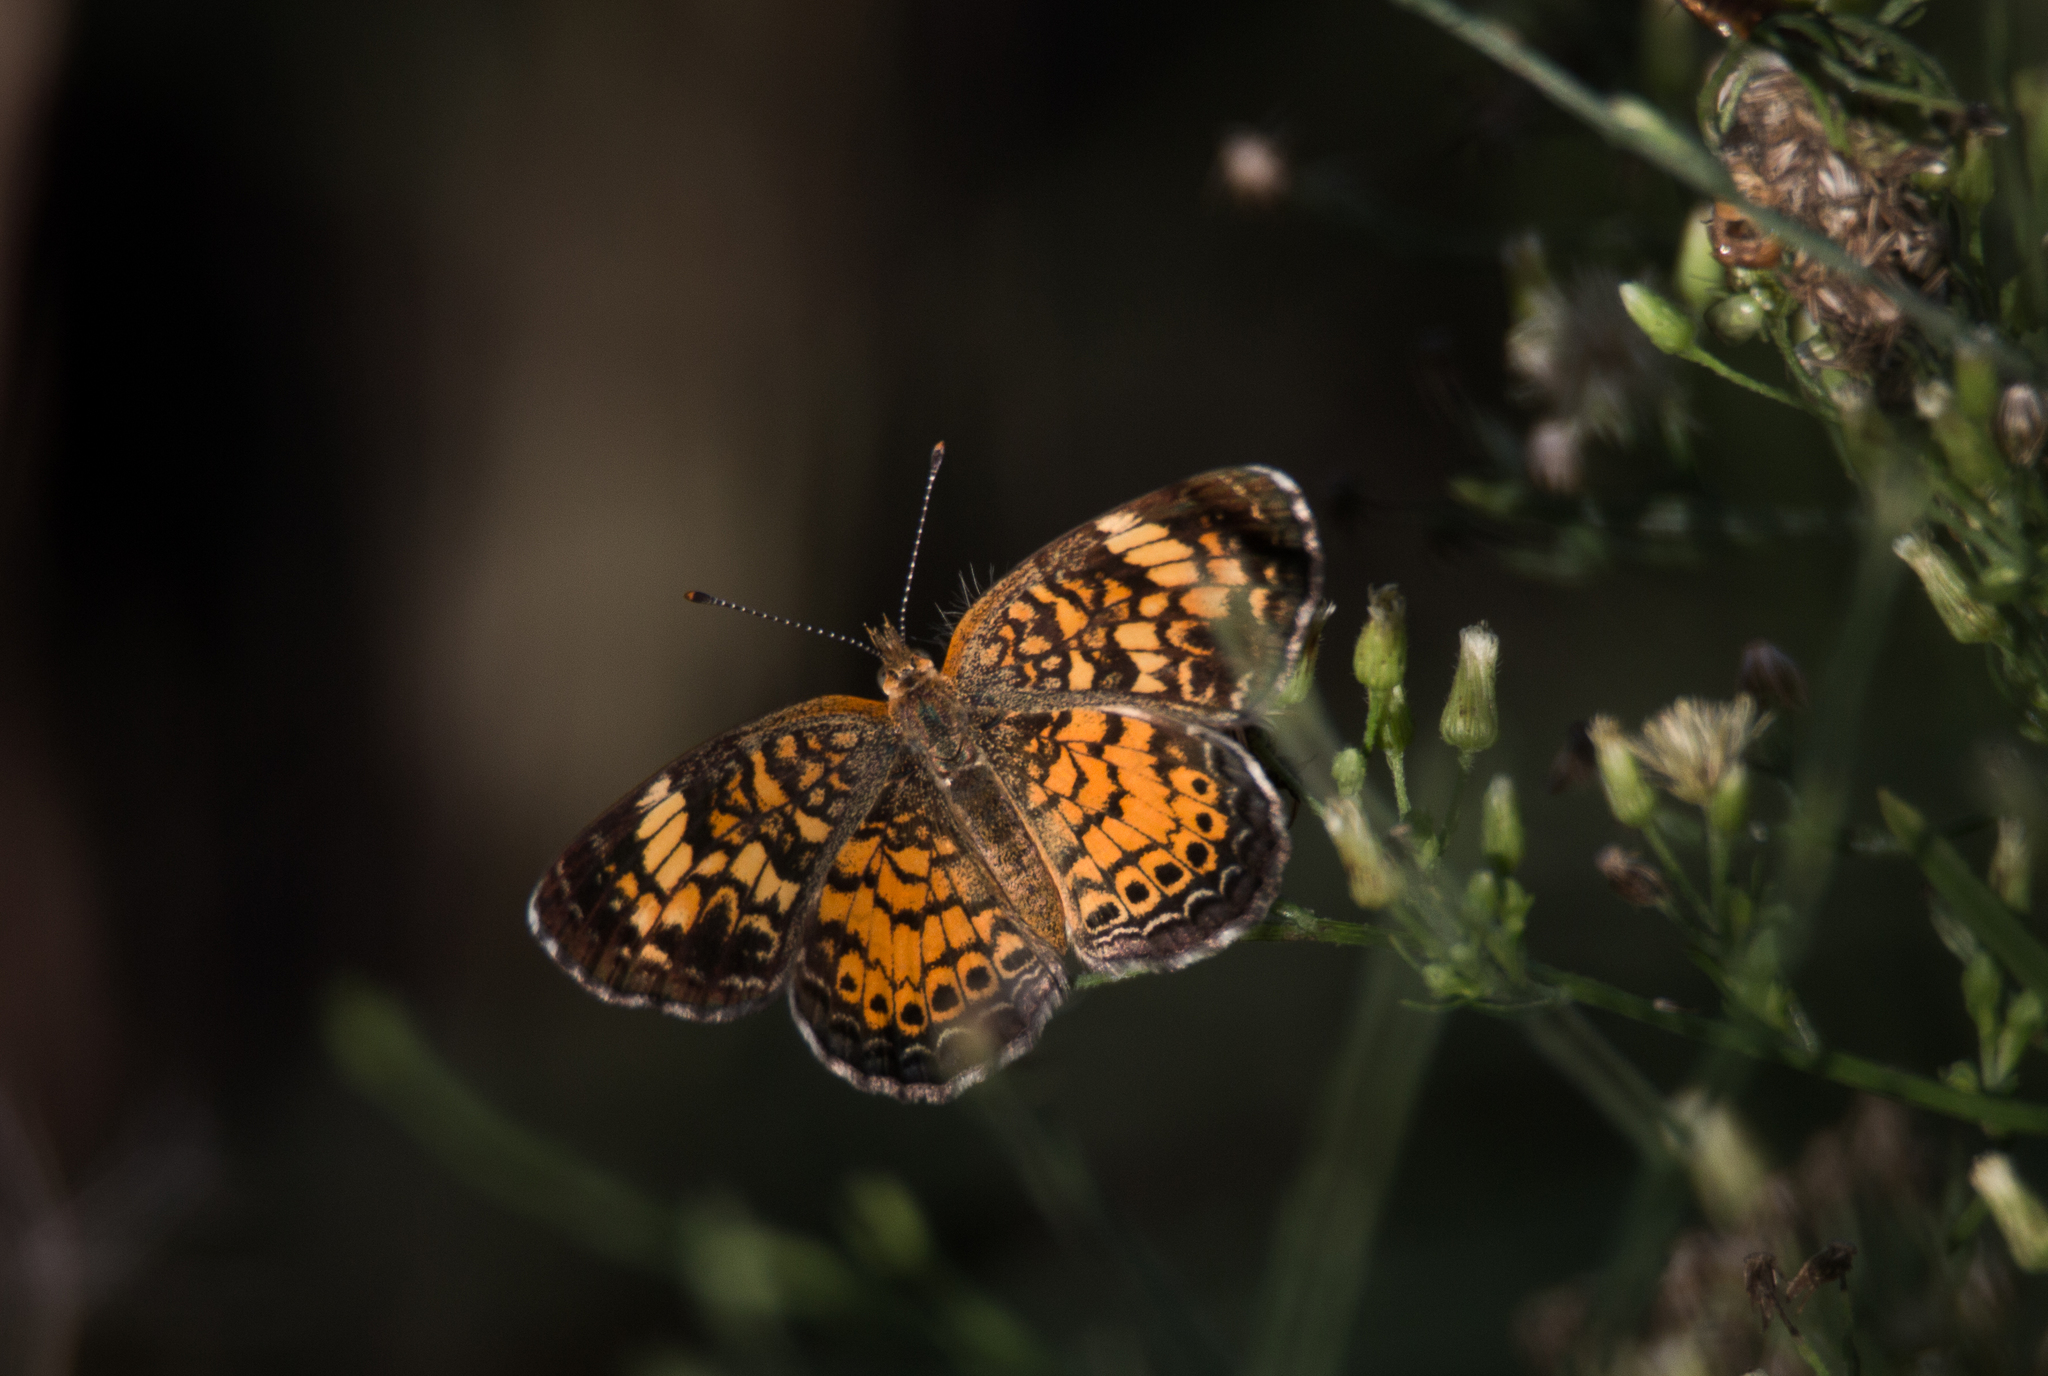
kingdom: Animalia
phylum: Arthropoda
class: Insecta
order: Lepidoptera
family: Nymphalidae
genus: Phyciodes
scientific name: Phyciodes tharos
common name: Pearl crescent
